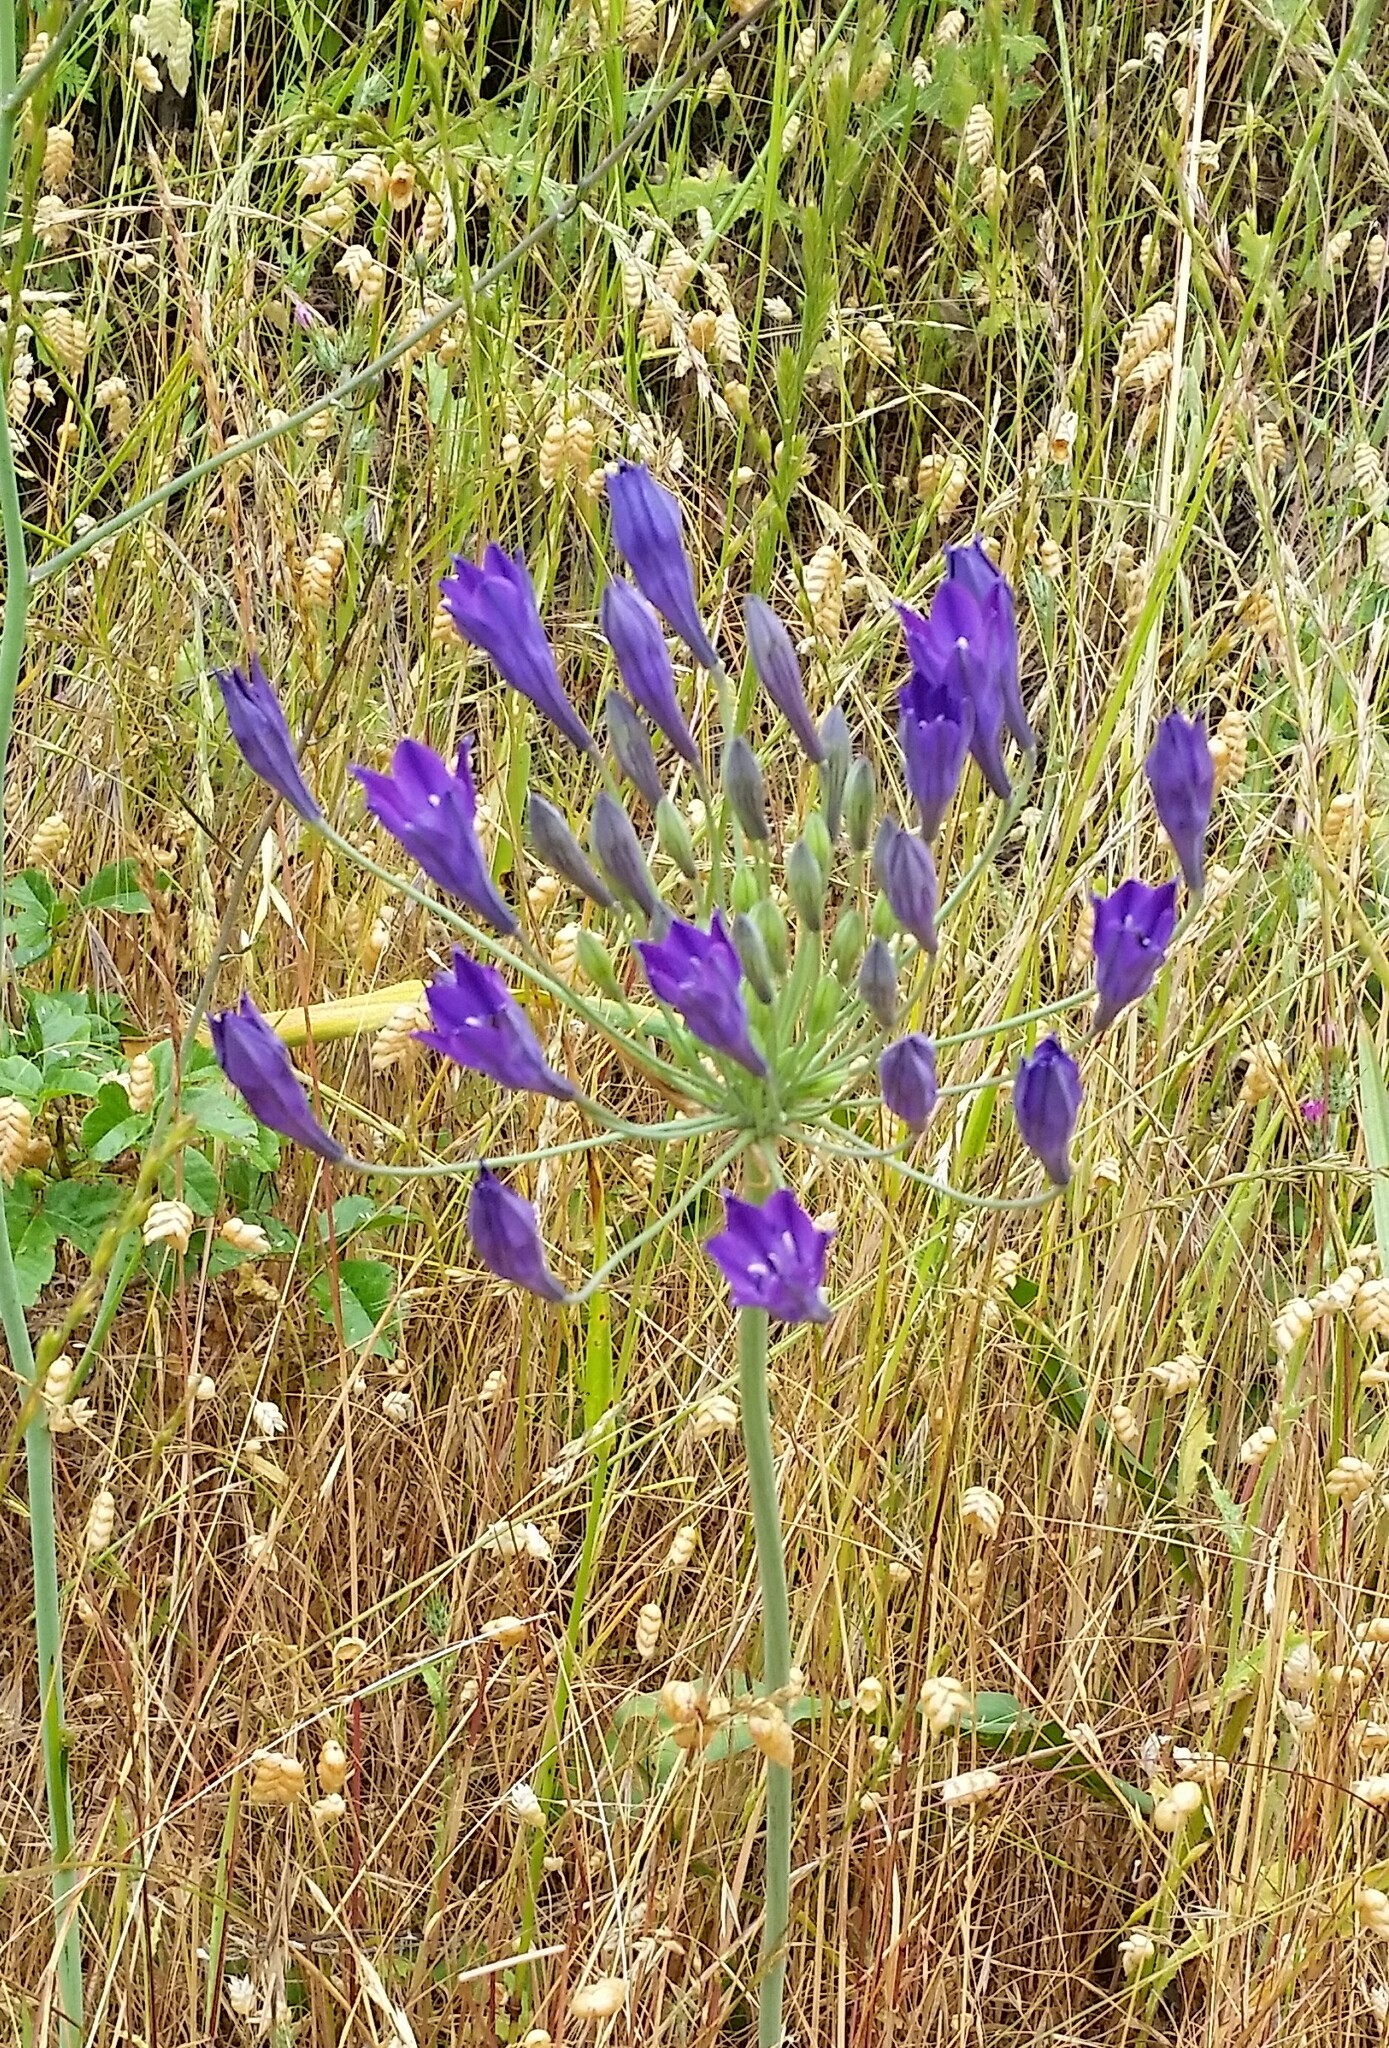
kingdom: Plantae
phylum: Tracheophyta
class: Liliopsida
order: Asparagales
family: Asparagaceae
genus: Triteleia
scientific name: Triteleia laxa
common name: Triplet-lily
